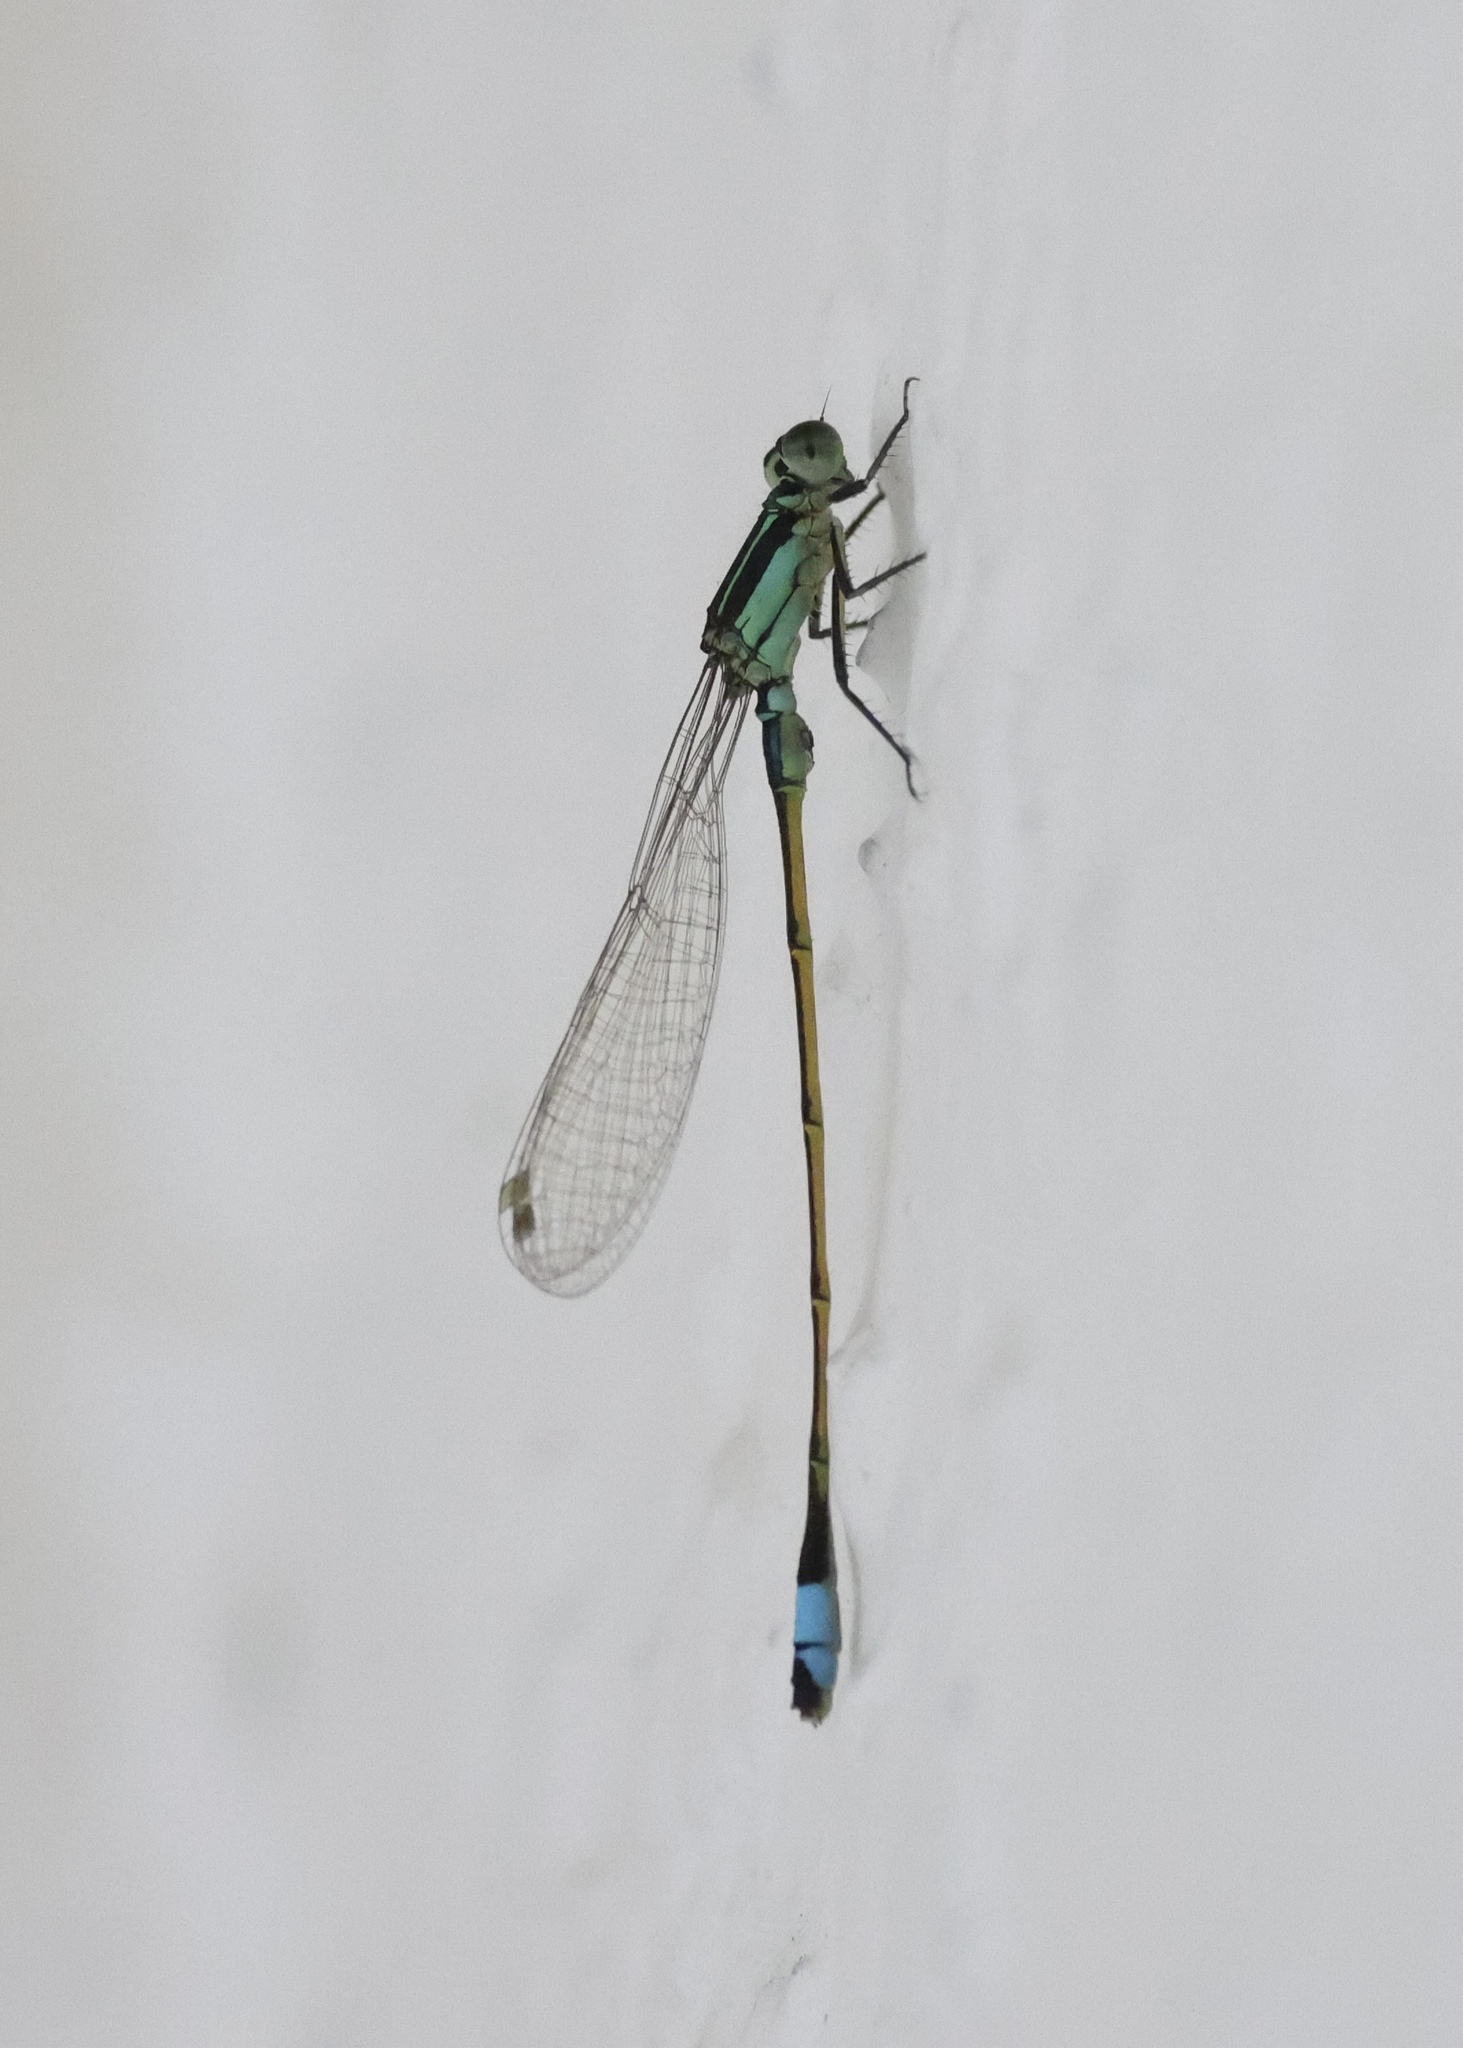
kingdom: Animalia
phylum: Arthropoda
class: Insecta
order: Odonata
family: Coenagrionidae
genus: Ischnura
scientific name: Ischnura ramburii
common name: Rambur's forktail
